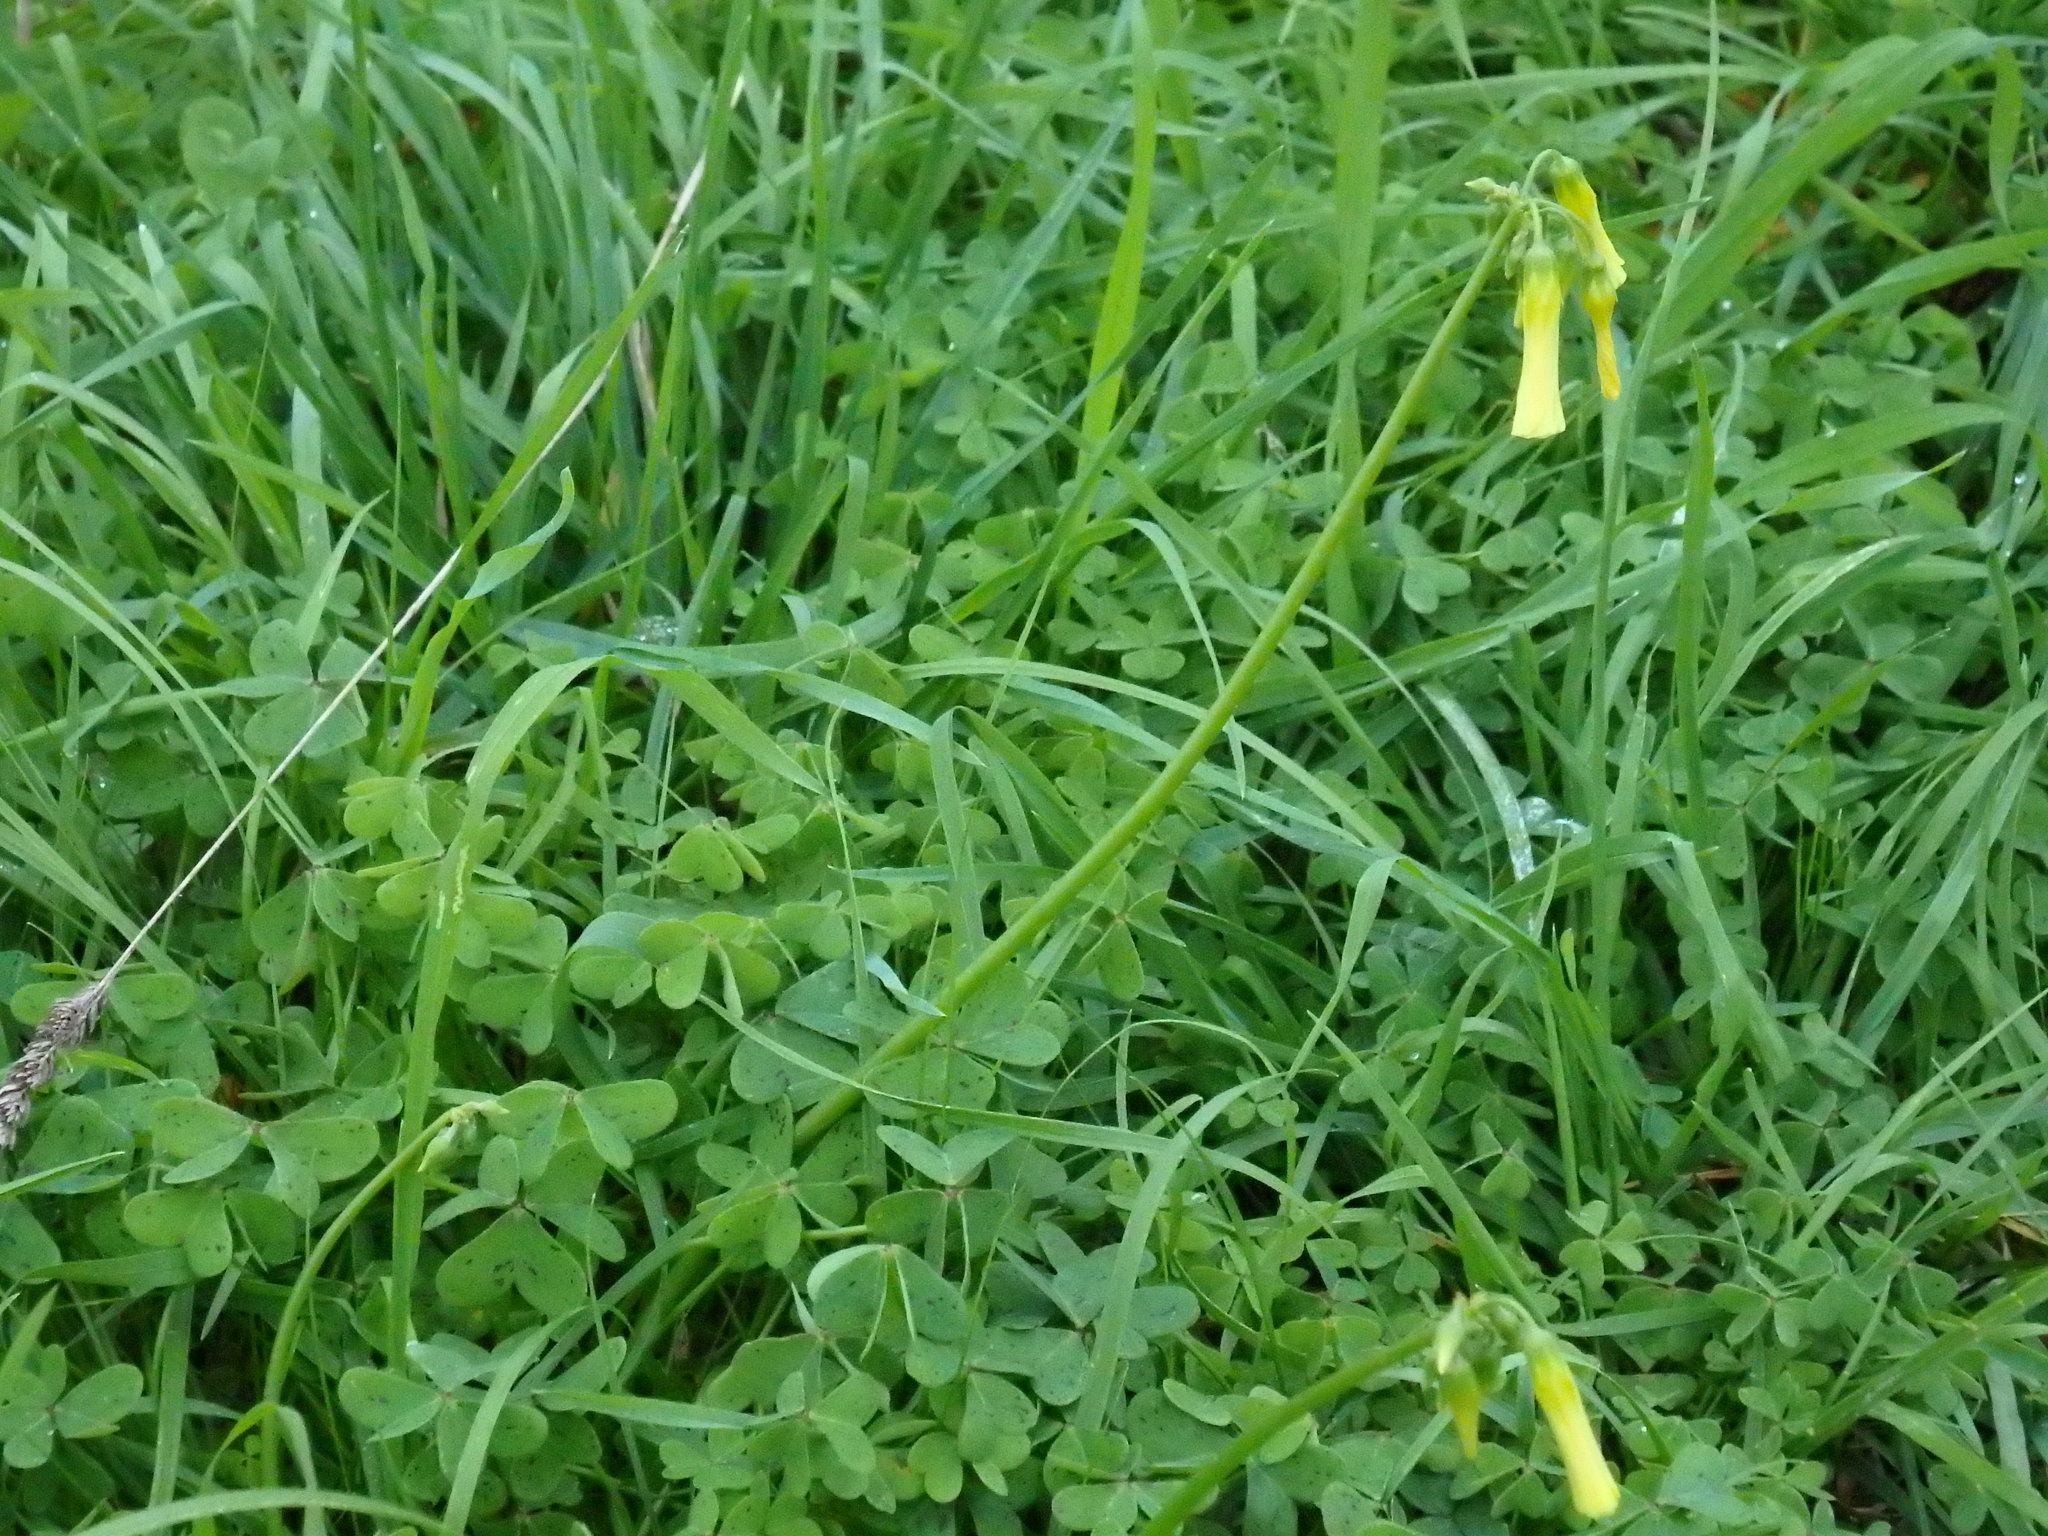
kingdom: Plantae
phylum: Tracheophyta
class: Magnoliopsida
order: Oxalidales
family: Oxalidaceae
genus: Oxalis
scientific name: Oxalis pes-caprae
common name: Bermuda-buttercup
